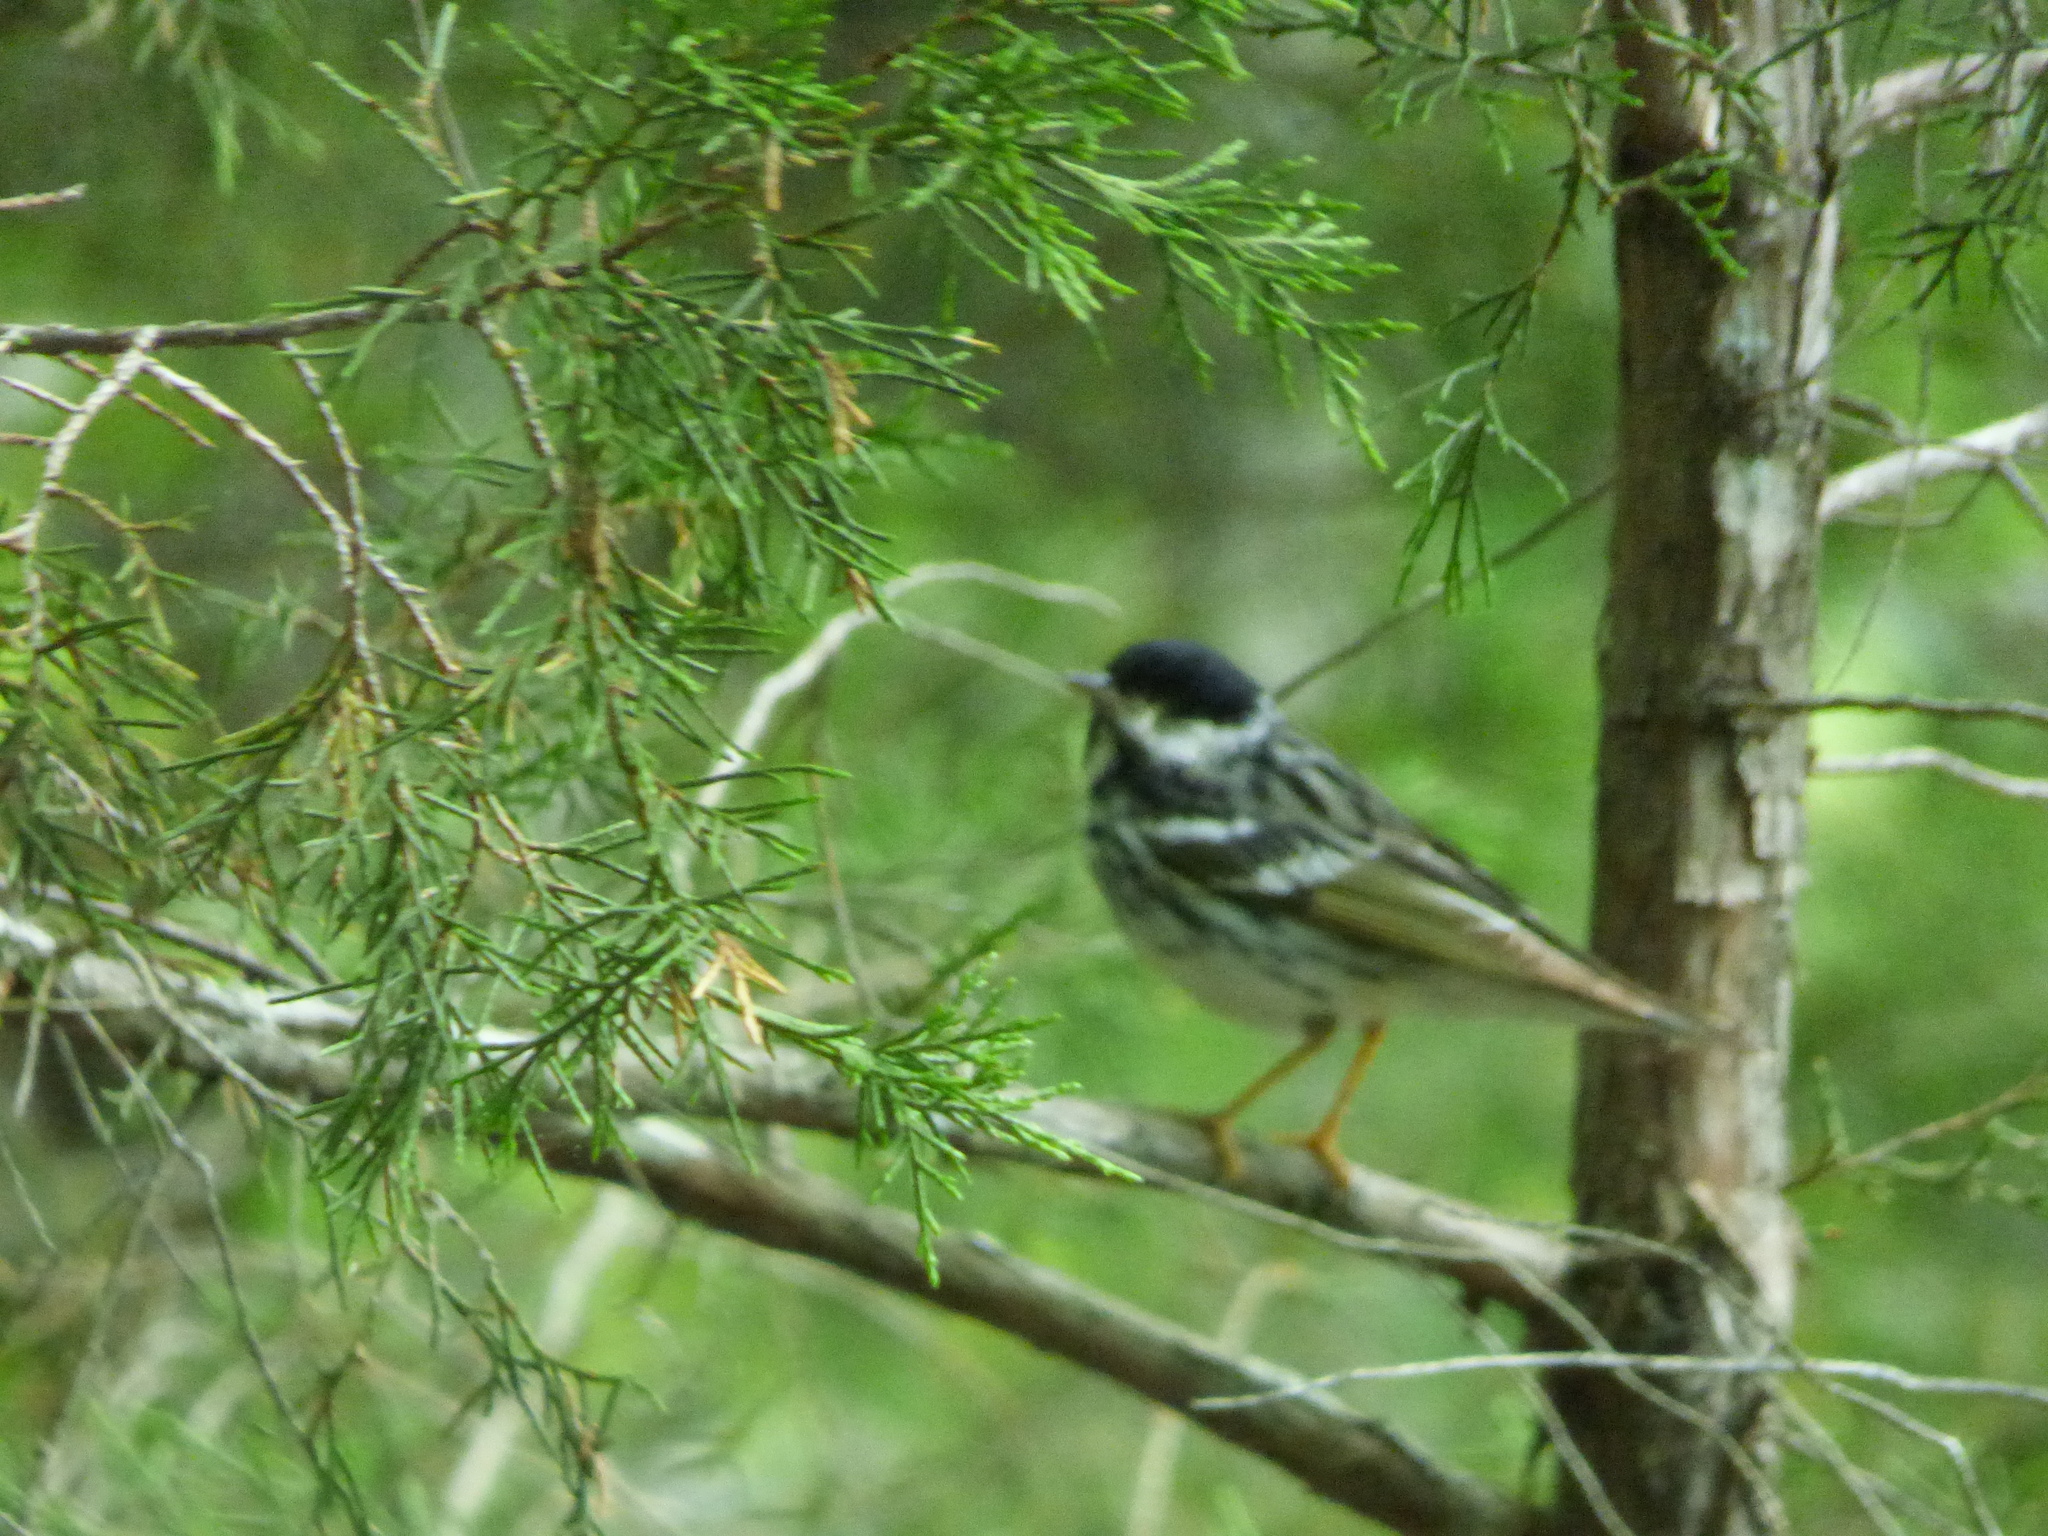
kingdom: Animalia
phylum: Chordata
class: Aves
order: Passeriformes
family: Parulidae
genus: Setophaga
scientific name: Setophaga striata
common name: Blackpoll warbler
